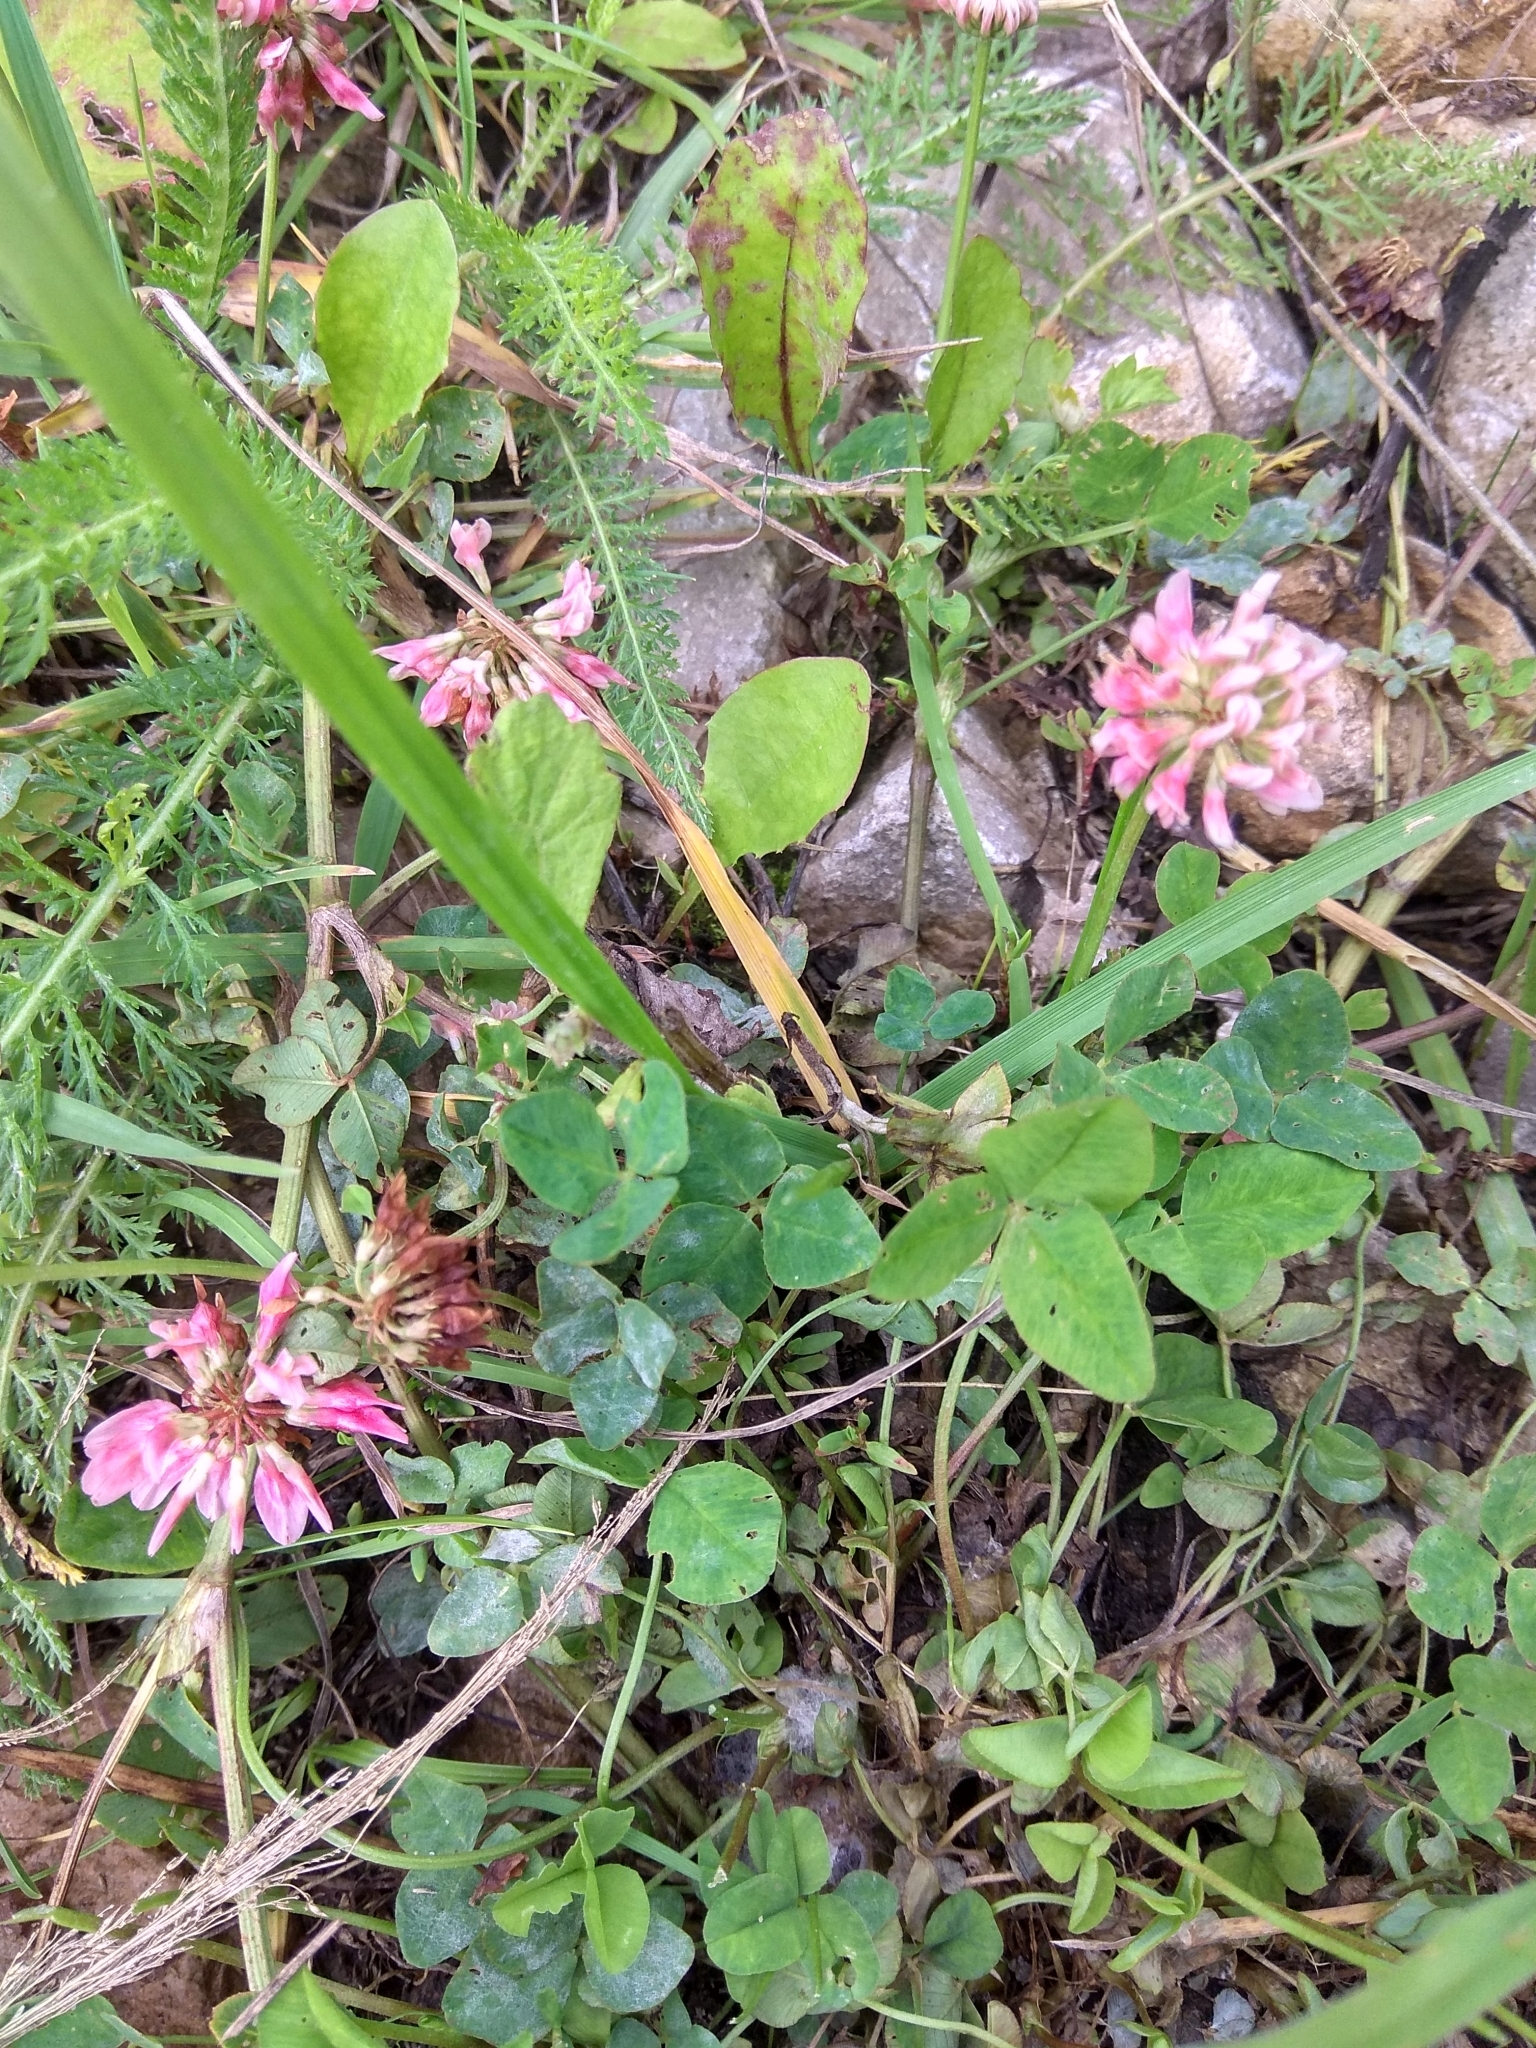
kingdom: Plantae
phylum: Tracheophyta
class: Magnoliopsida
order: Fabales
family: Fabaceae
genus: Trifolium
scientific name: Trifolium hybridum
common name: Alsike clover
